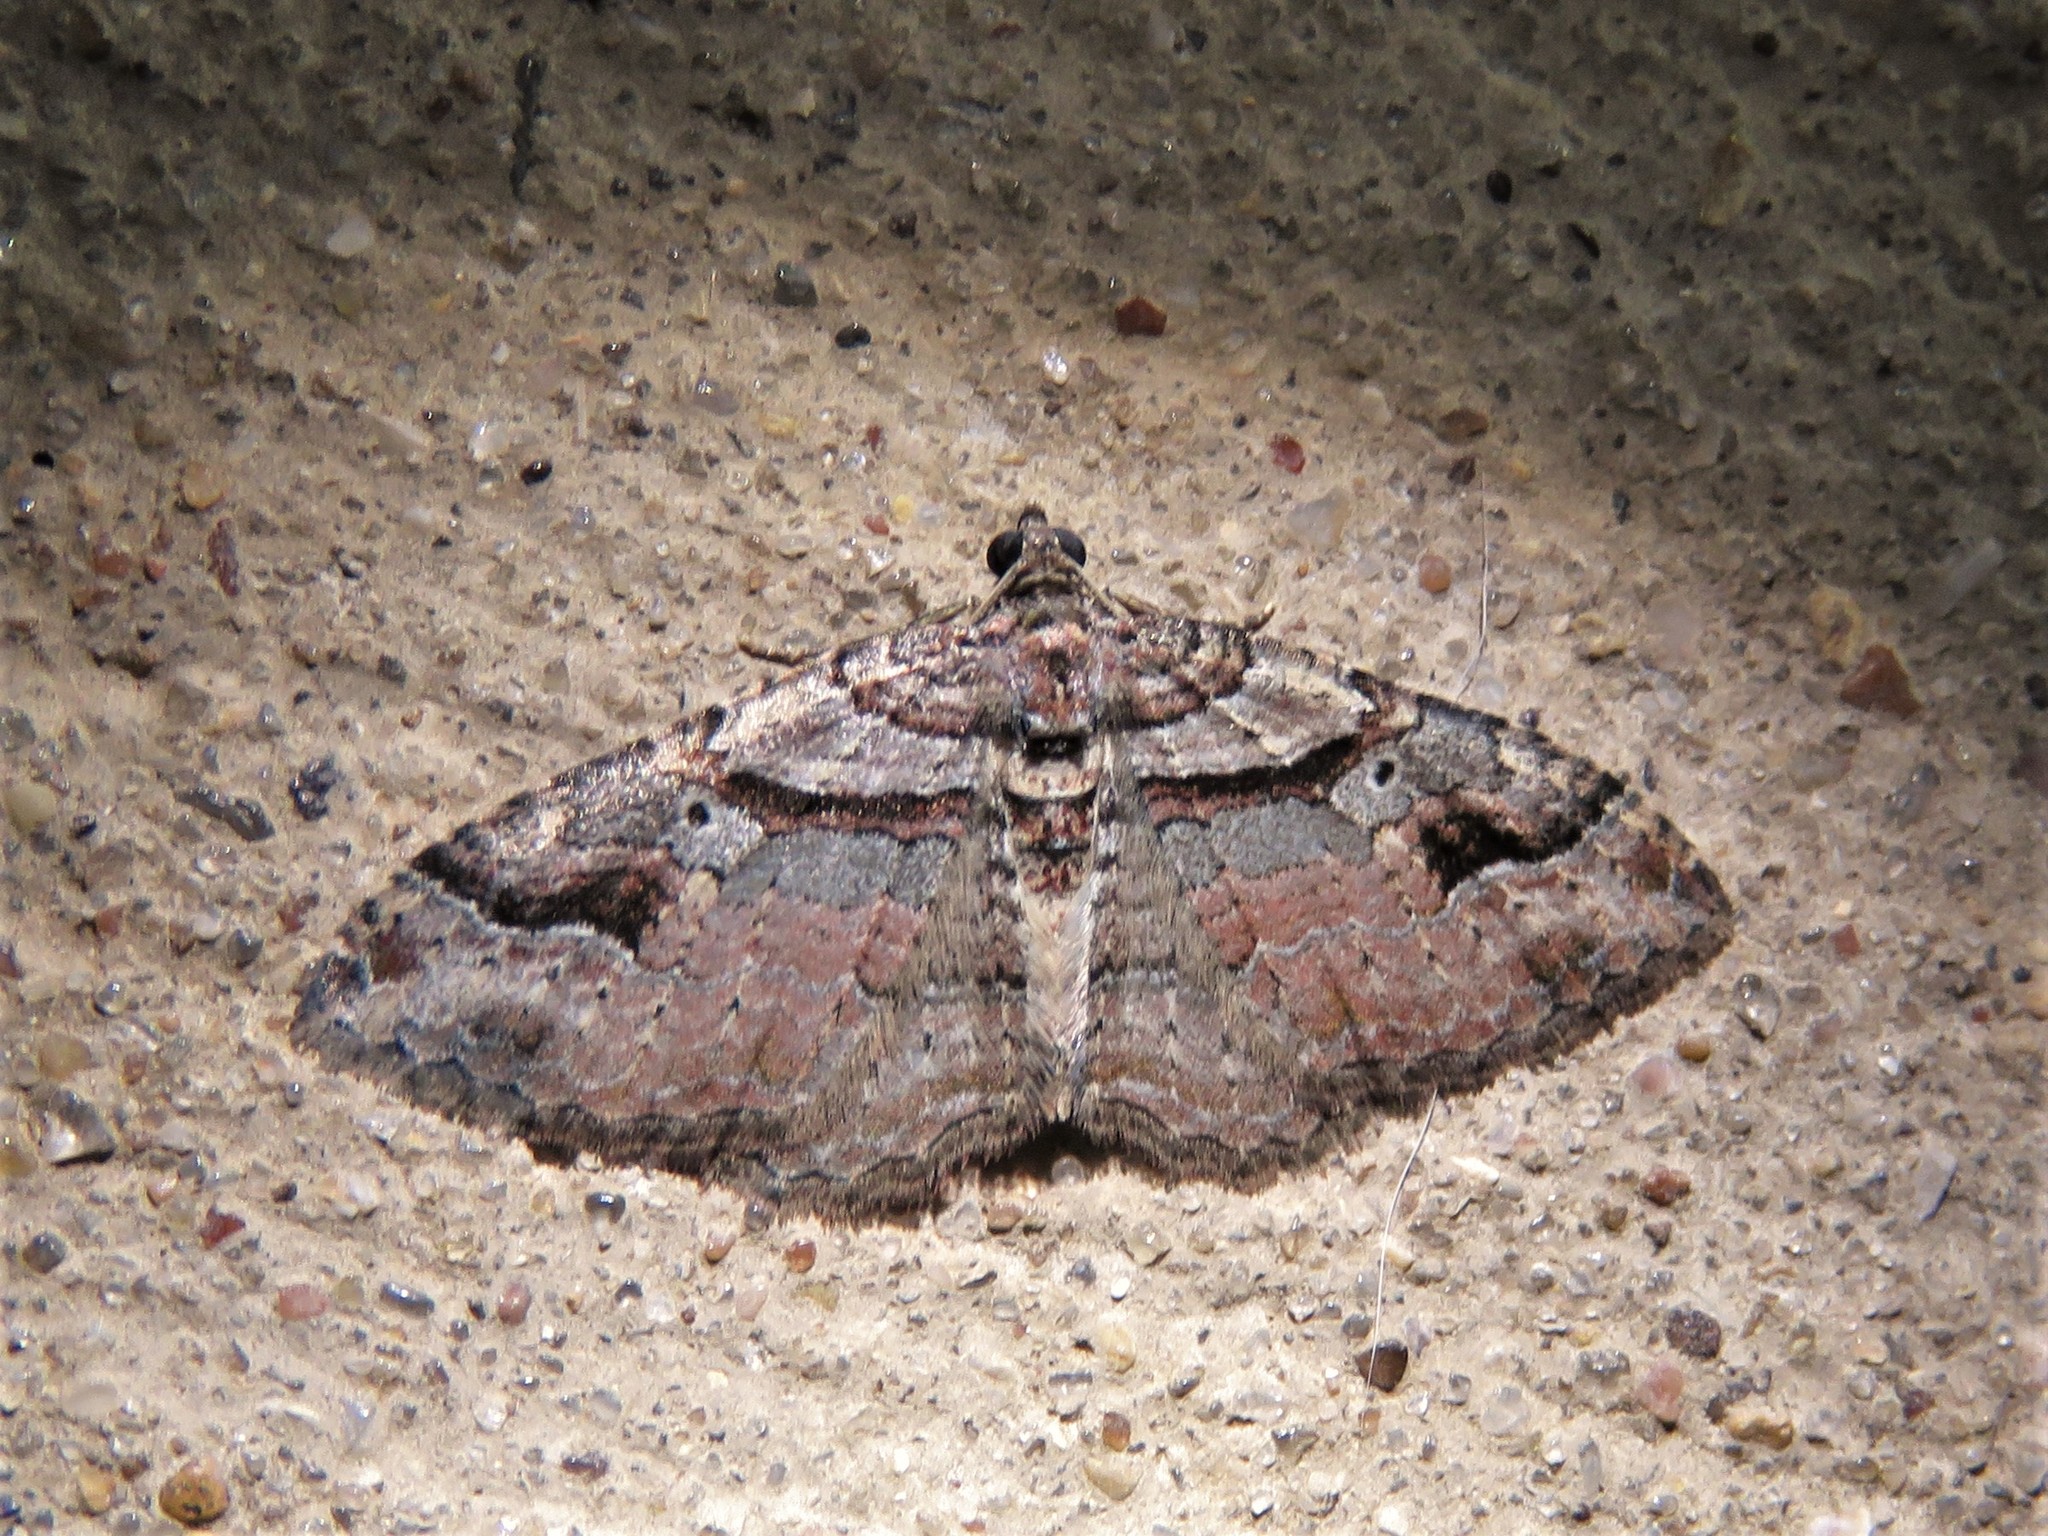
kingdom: Animalia
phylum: Arthropoda
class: Insecta
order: Lepidoptera
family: Geometridae
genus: Costaconvexa
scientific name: Costaconvexa centrostrigaria
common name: Bent-line carpet
